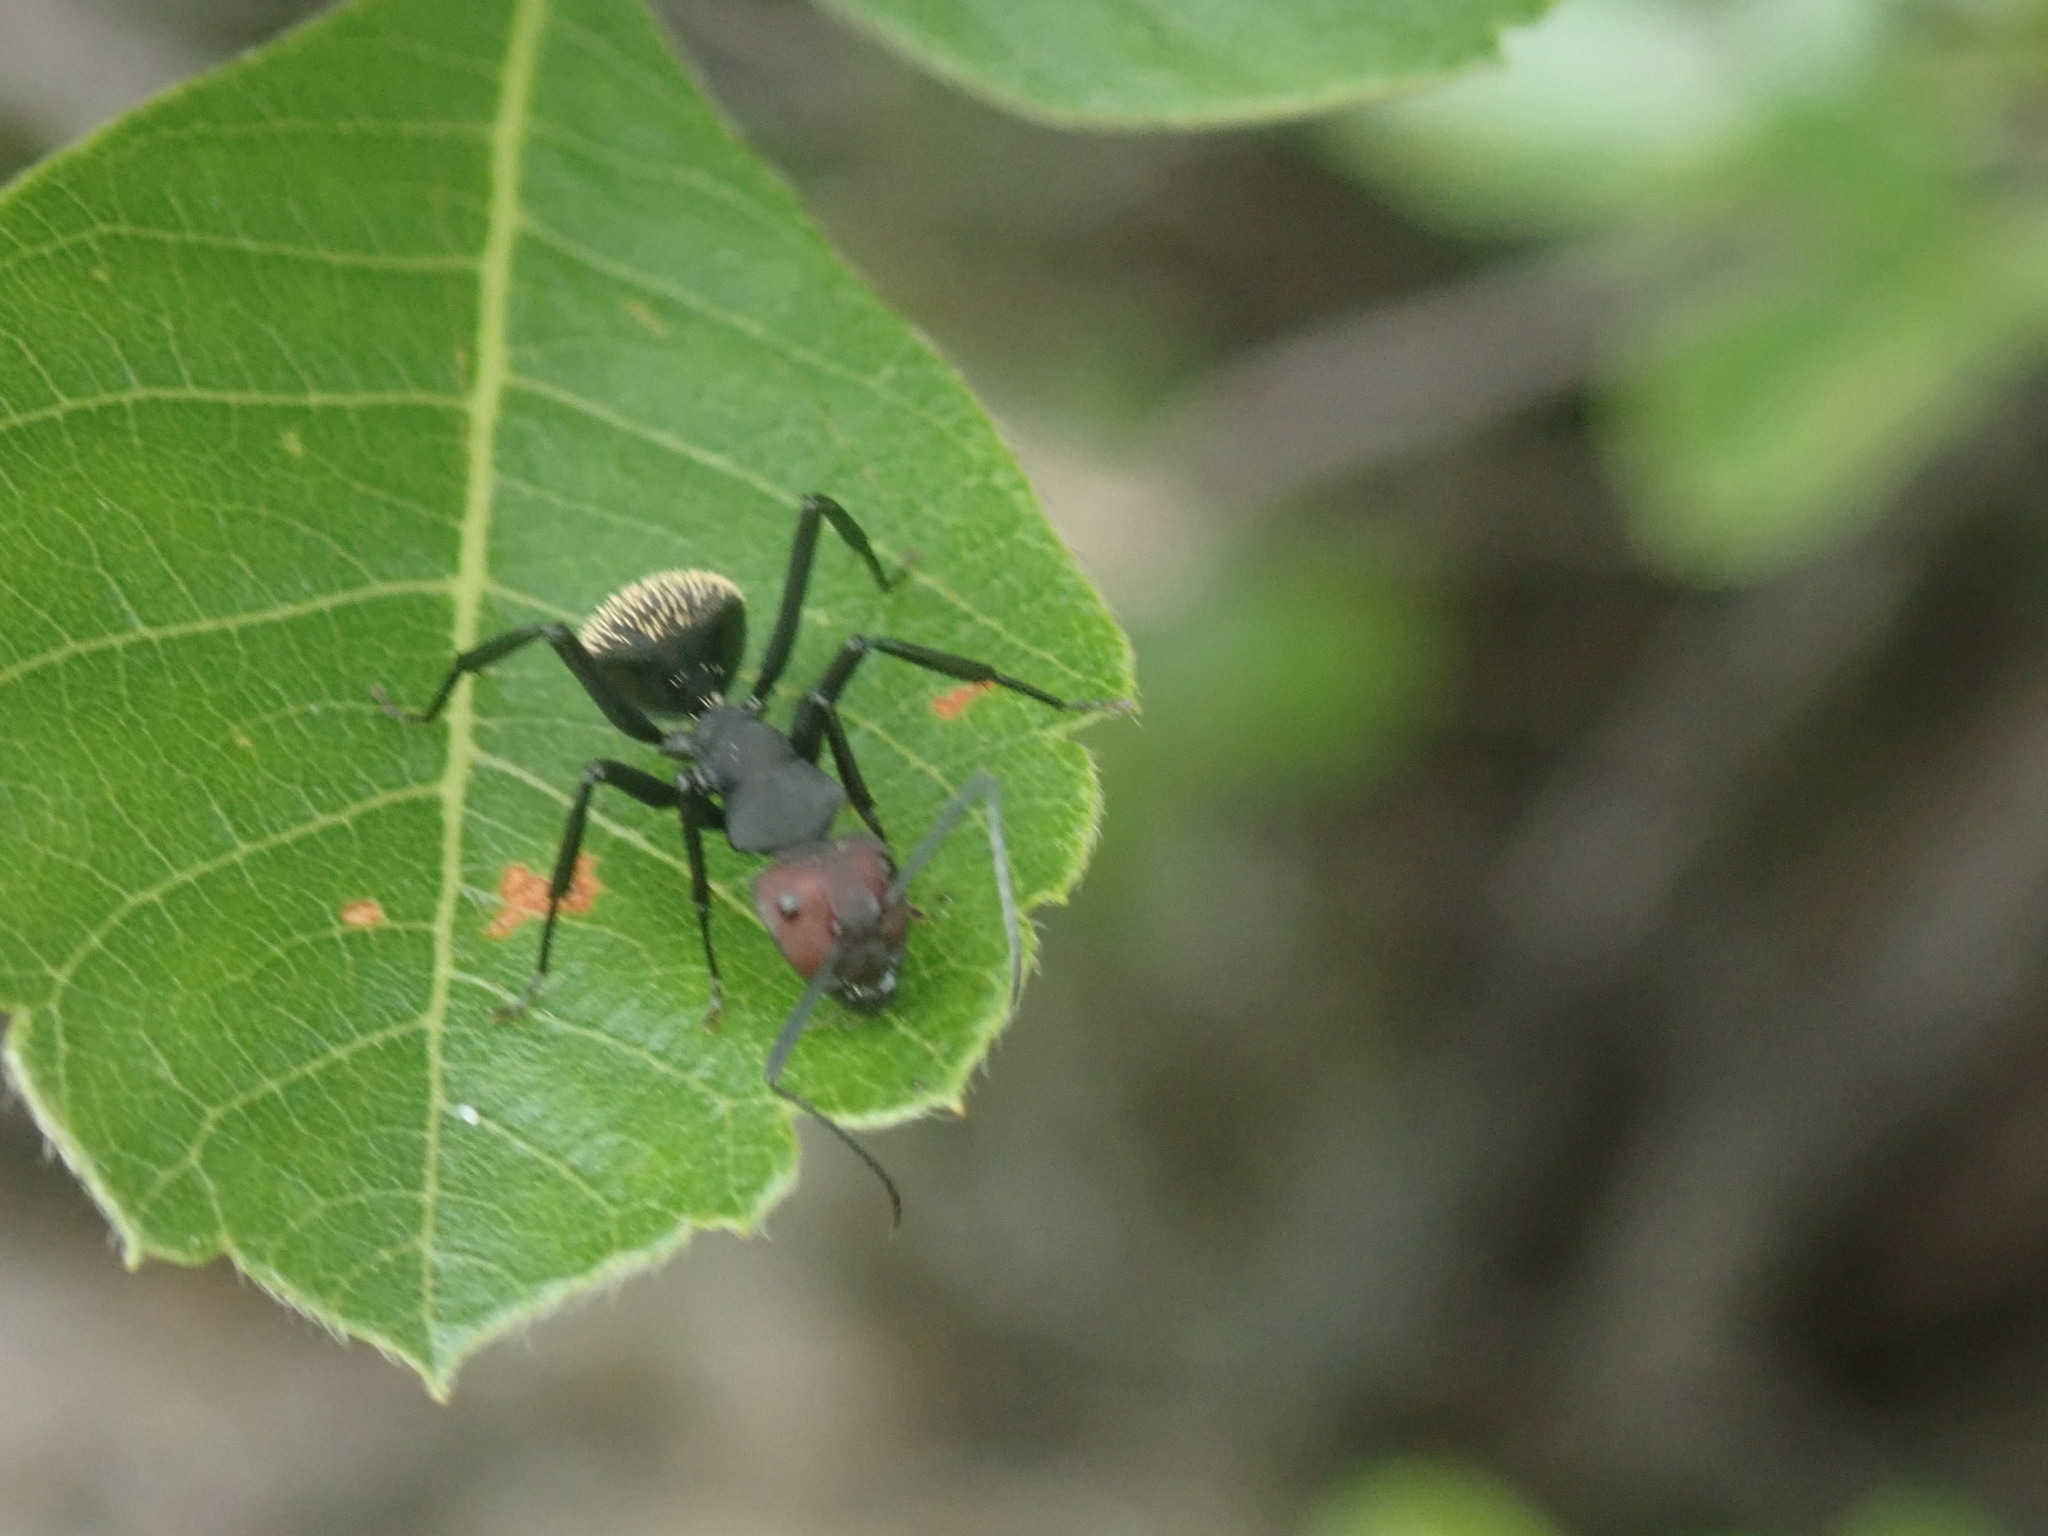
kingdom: Animalia
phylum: Arthropoda
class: Insecta
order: Hymenoptera
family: Formicidae
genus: Camponotus
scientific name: Camponotus brevisetosus
